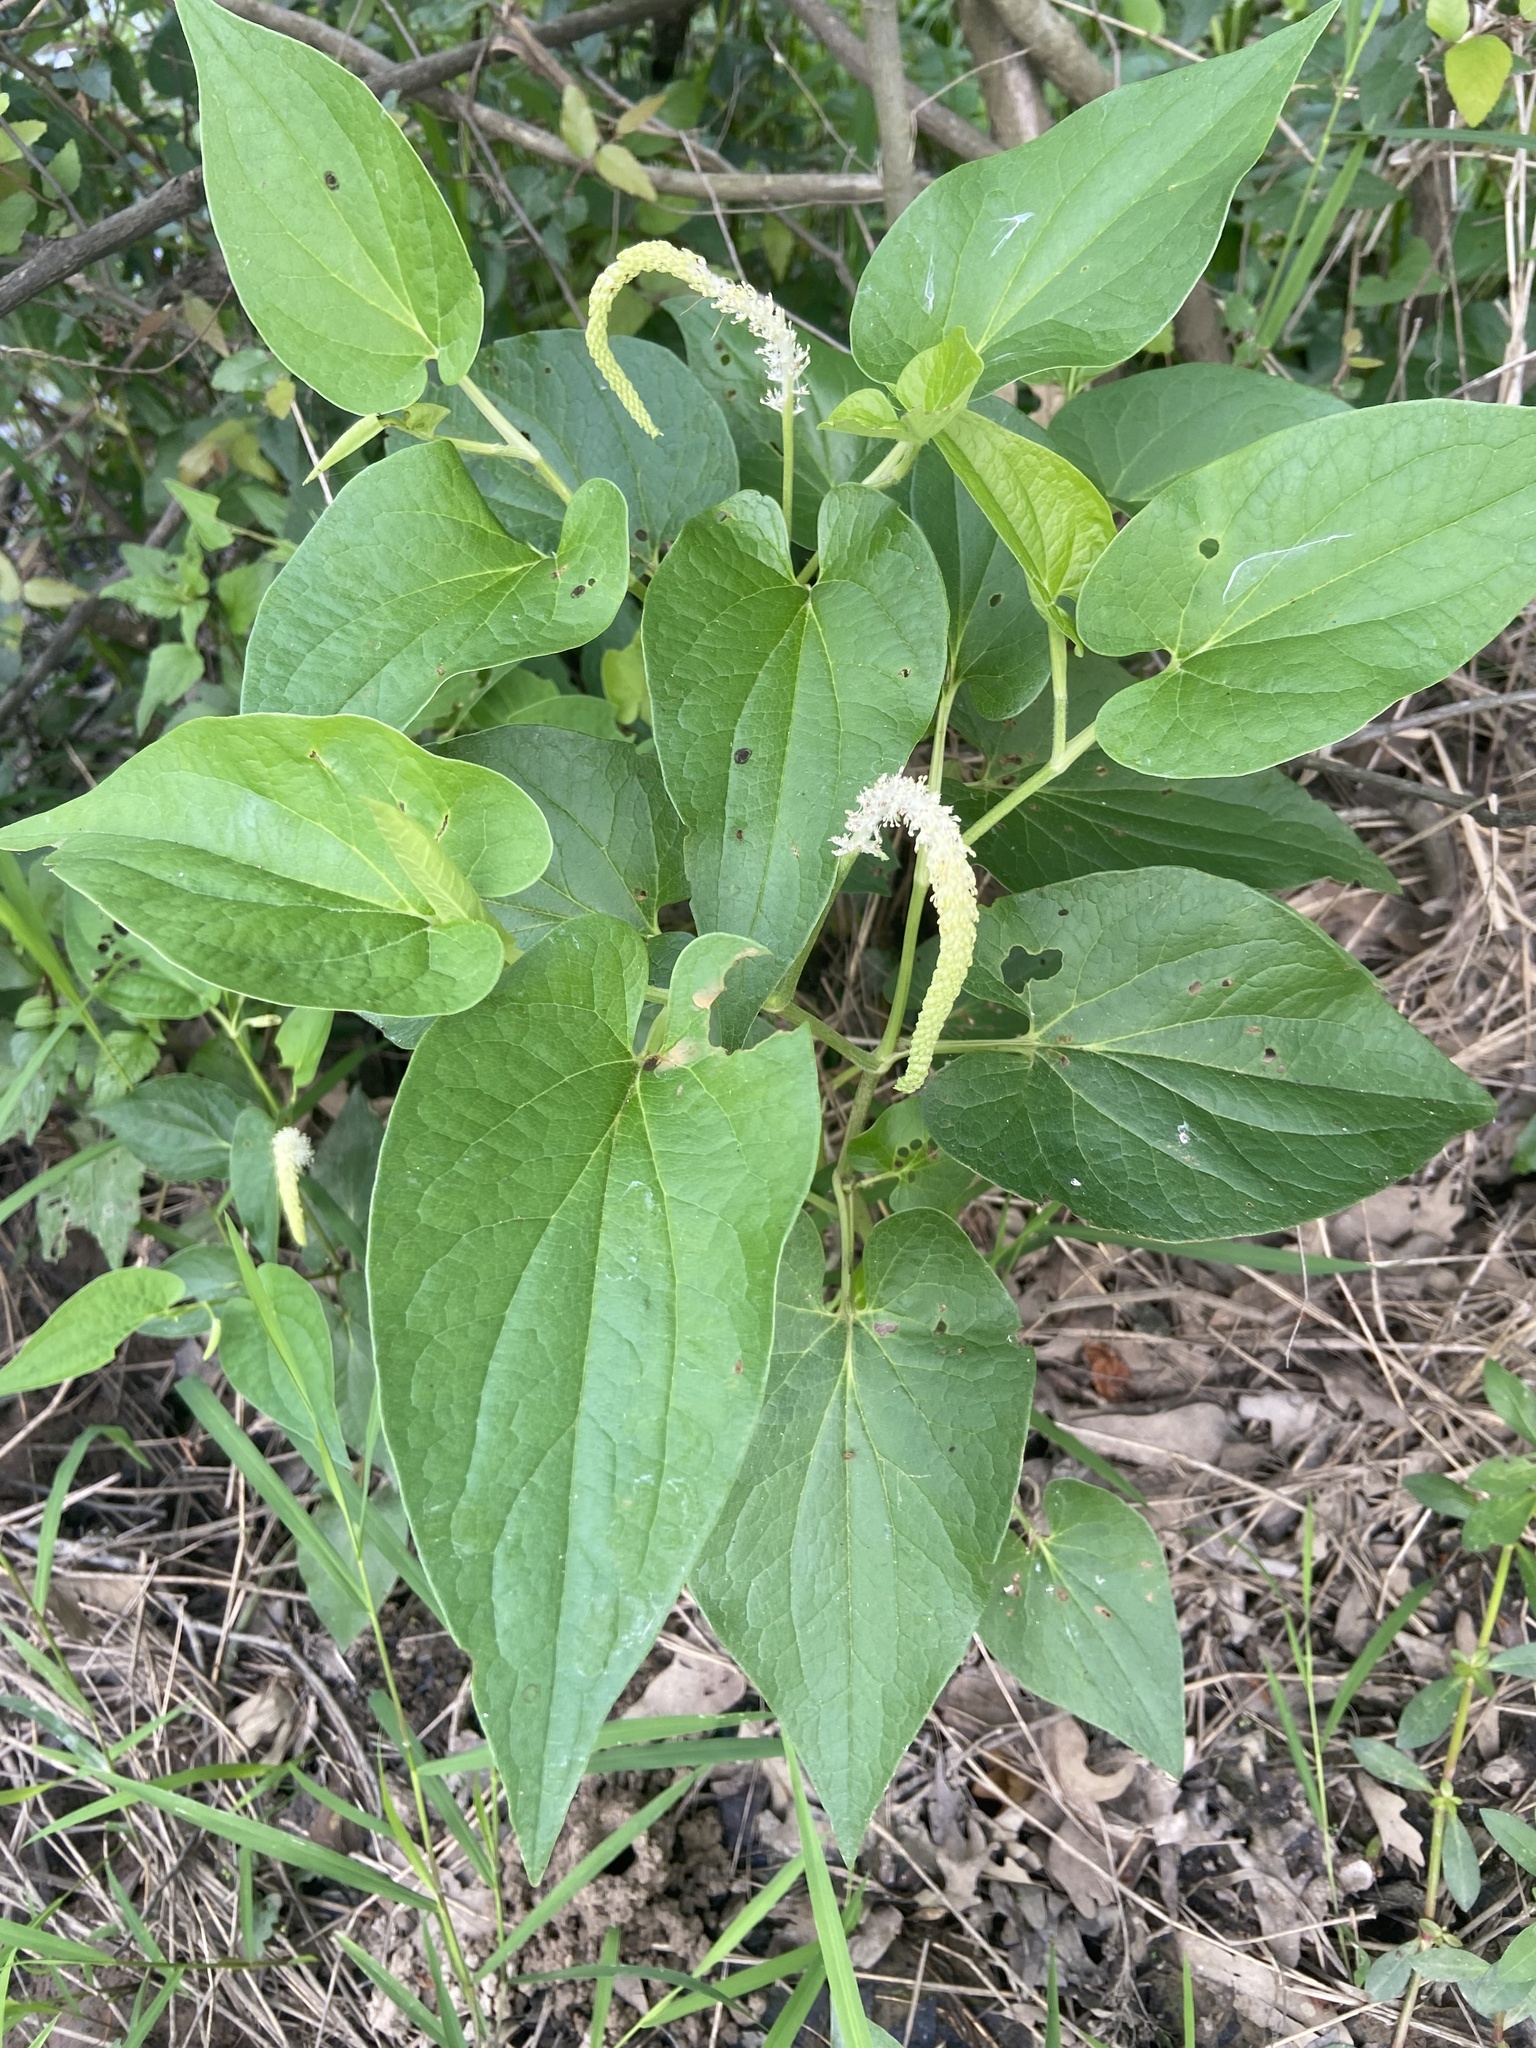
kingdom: Plantae
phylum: Tracheophyta
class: Magnoliopsida
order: Piperales
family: Saururaceae
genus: Saururus
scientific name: Saururus cernuus
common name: Lizard's-tail
